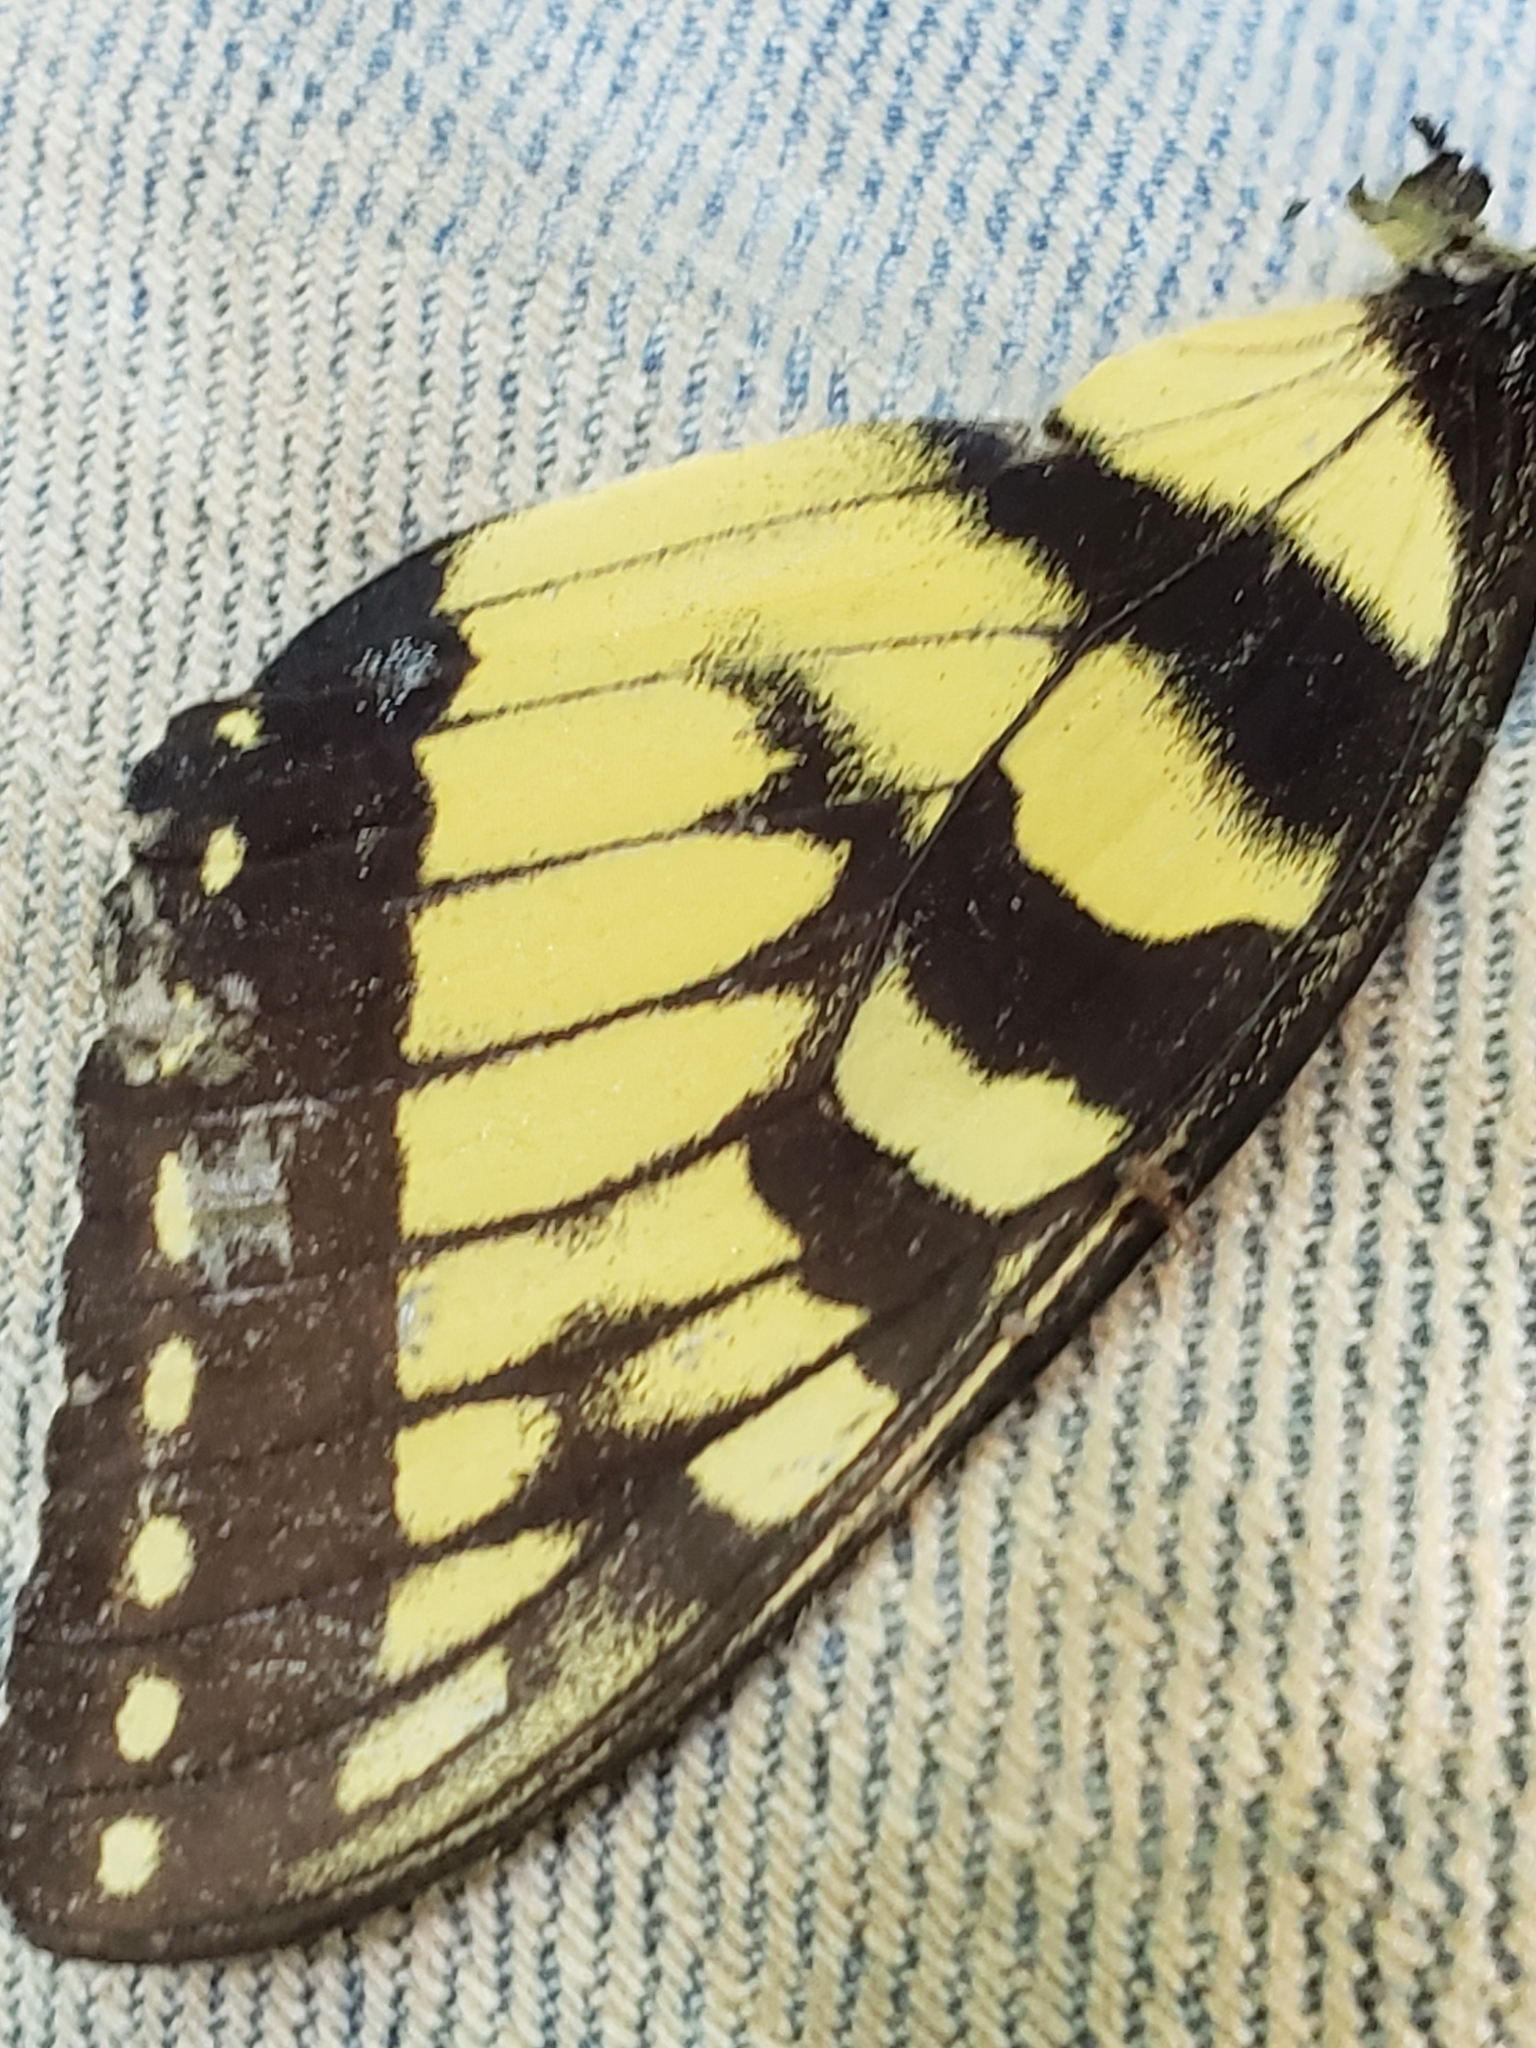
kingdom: Animalia
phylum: Arthropoda
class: Insecta
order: Lepidoptera
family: Papilionidae
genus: Papilio
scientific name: Papilio glaucus
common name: Tiger swallowtail
